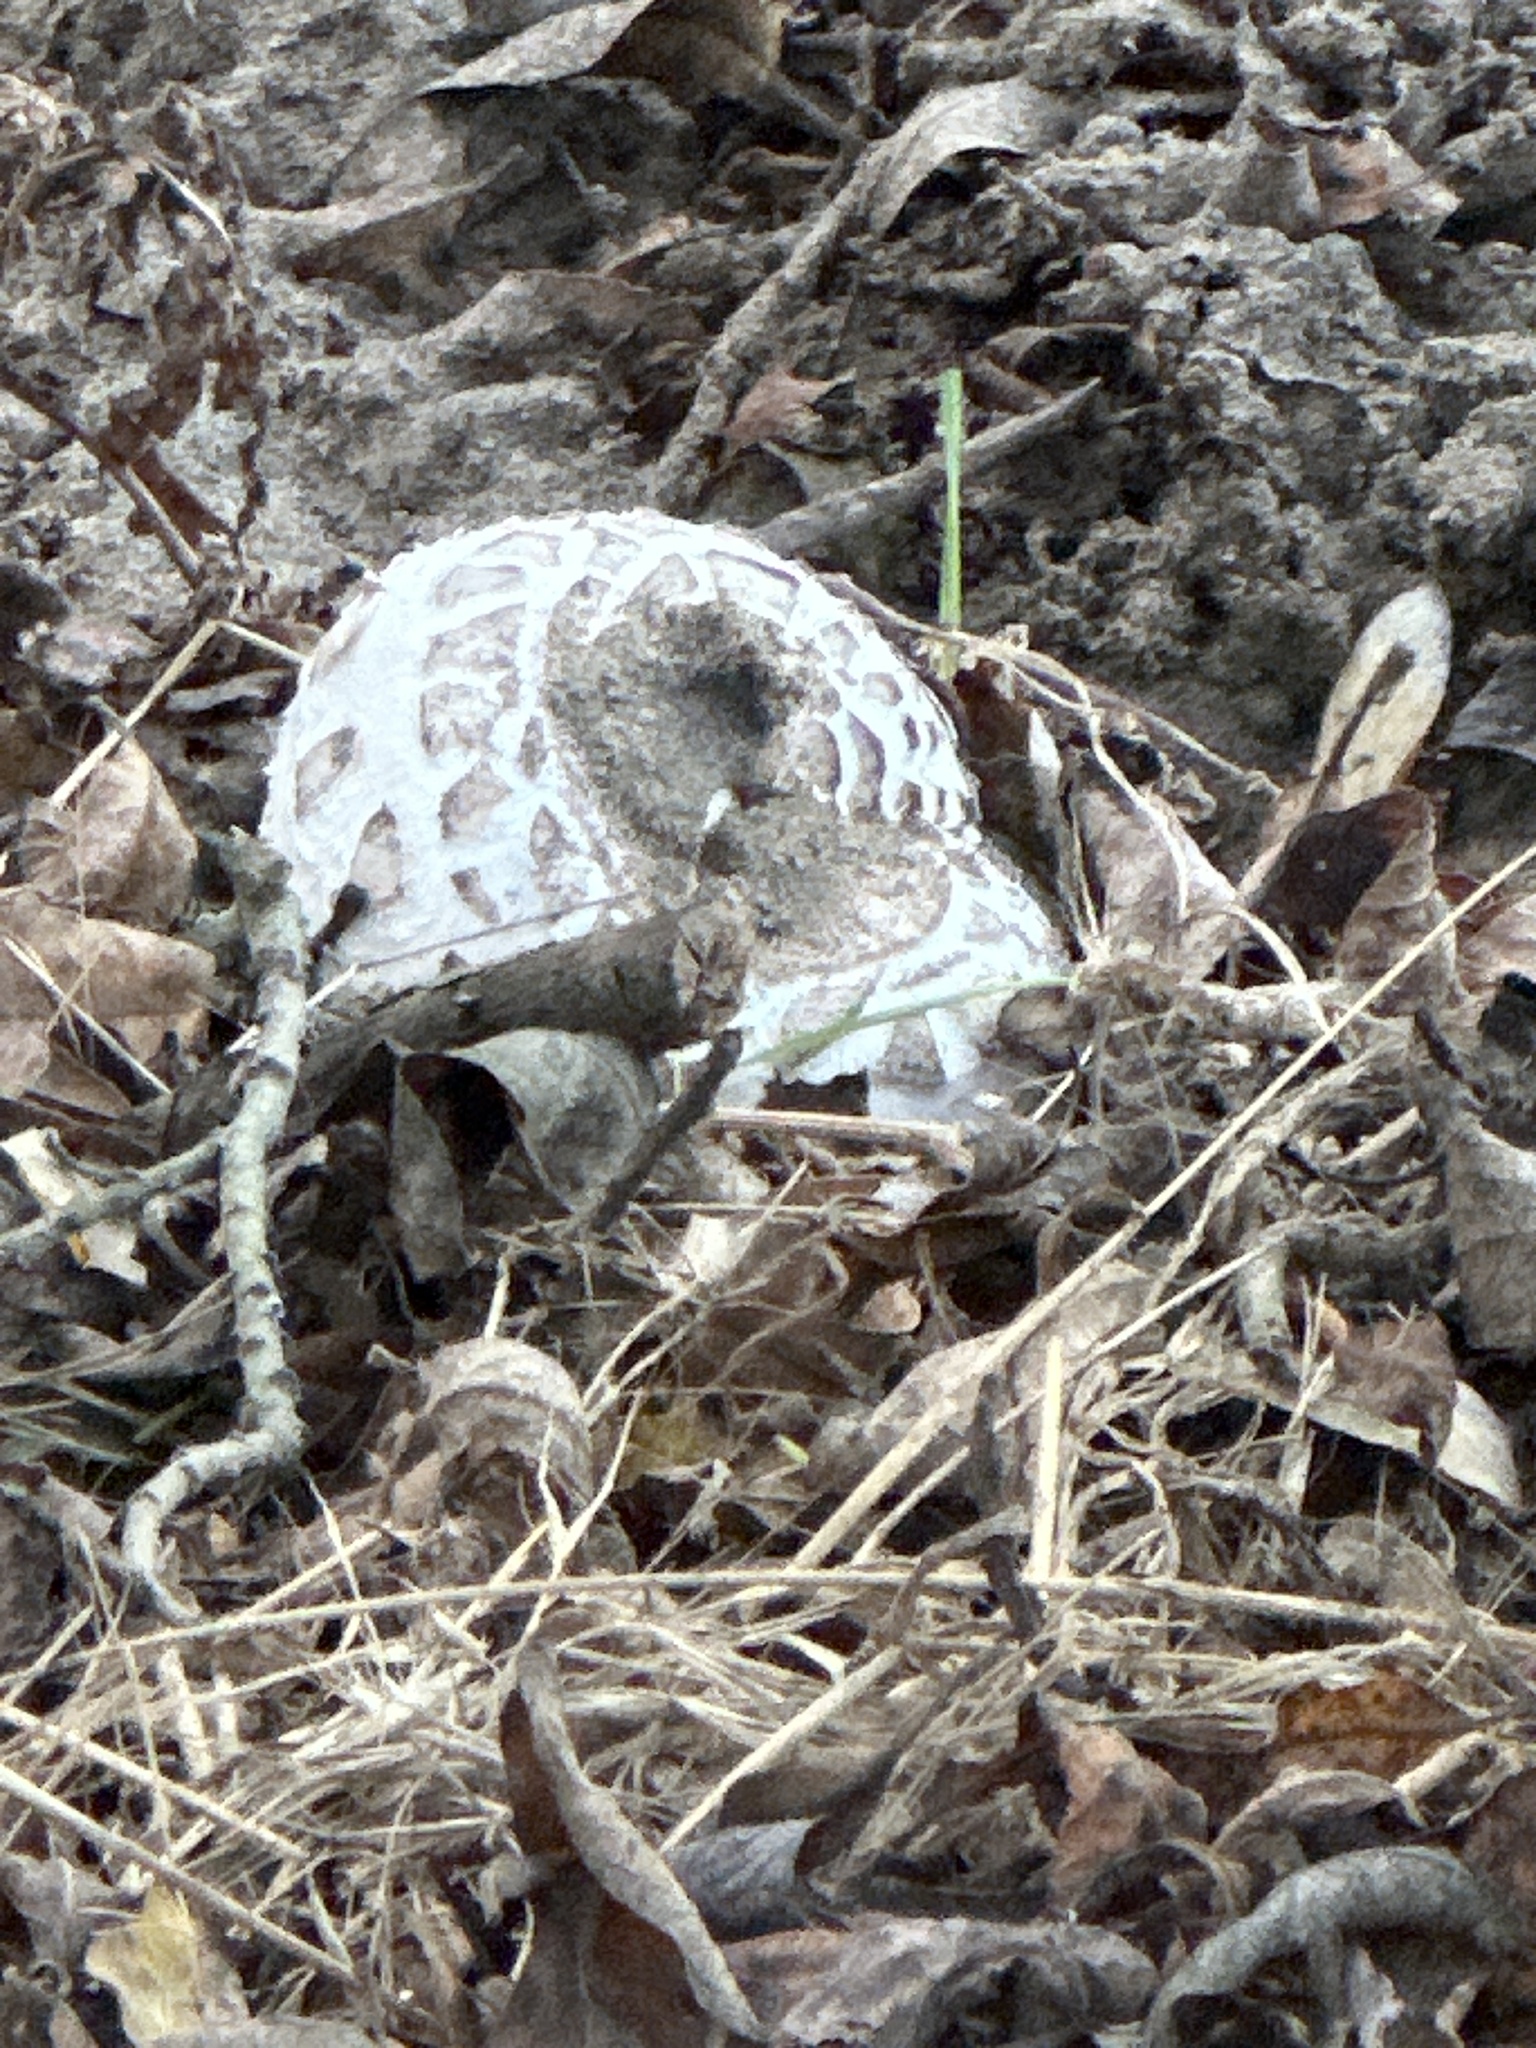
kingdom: Fungi
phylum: Basidiomycota
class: Agaricomycetes
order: Agaricales
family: Agaricaceae
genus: Chlorophyllum
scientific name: Chlorophyllum brunneum
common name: Brown parasol
